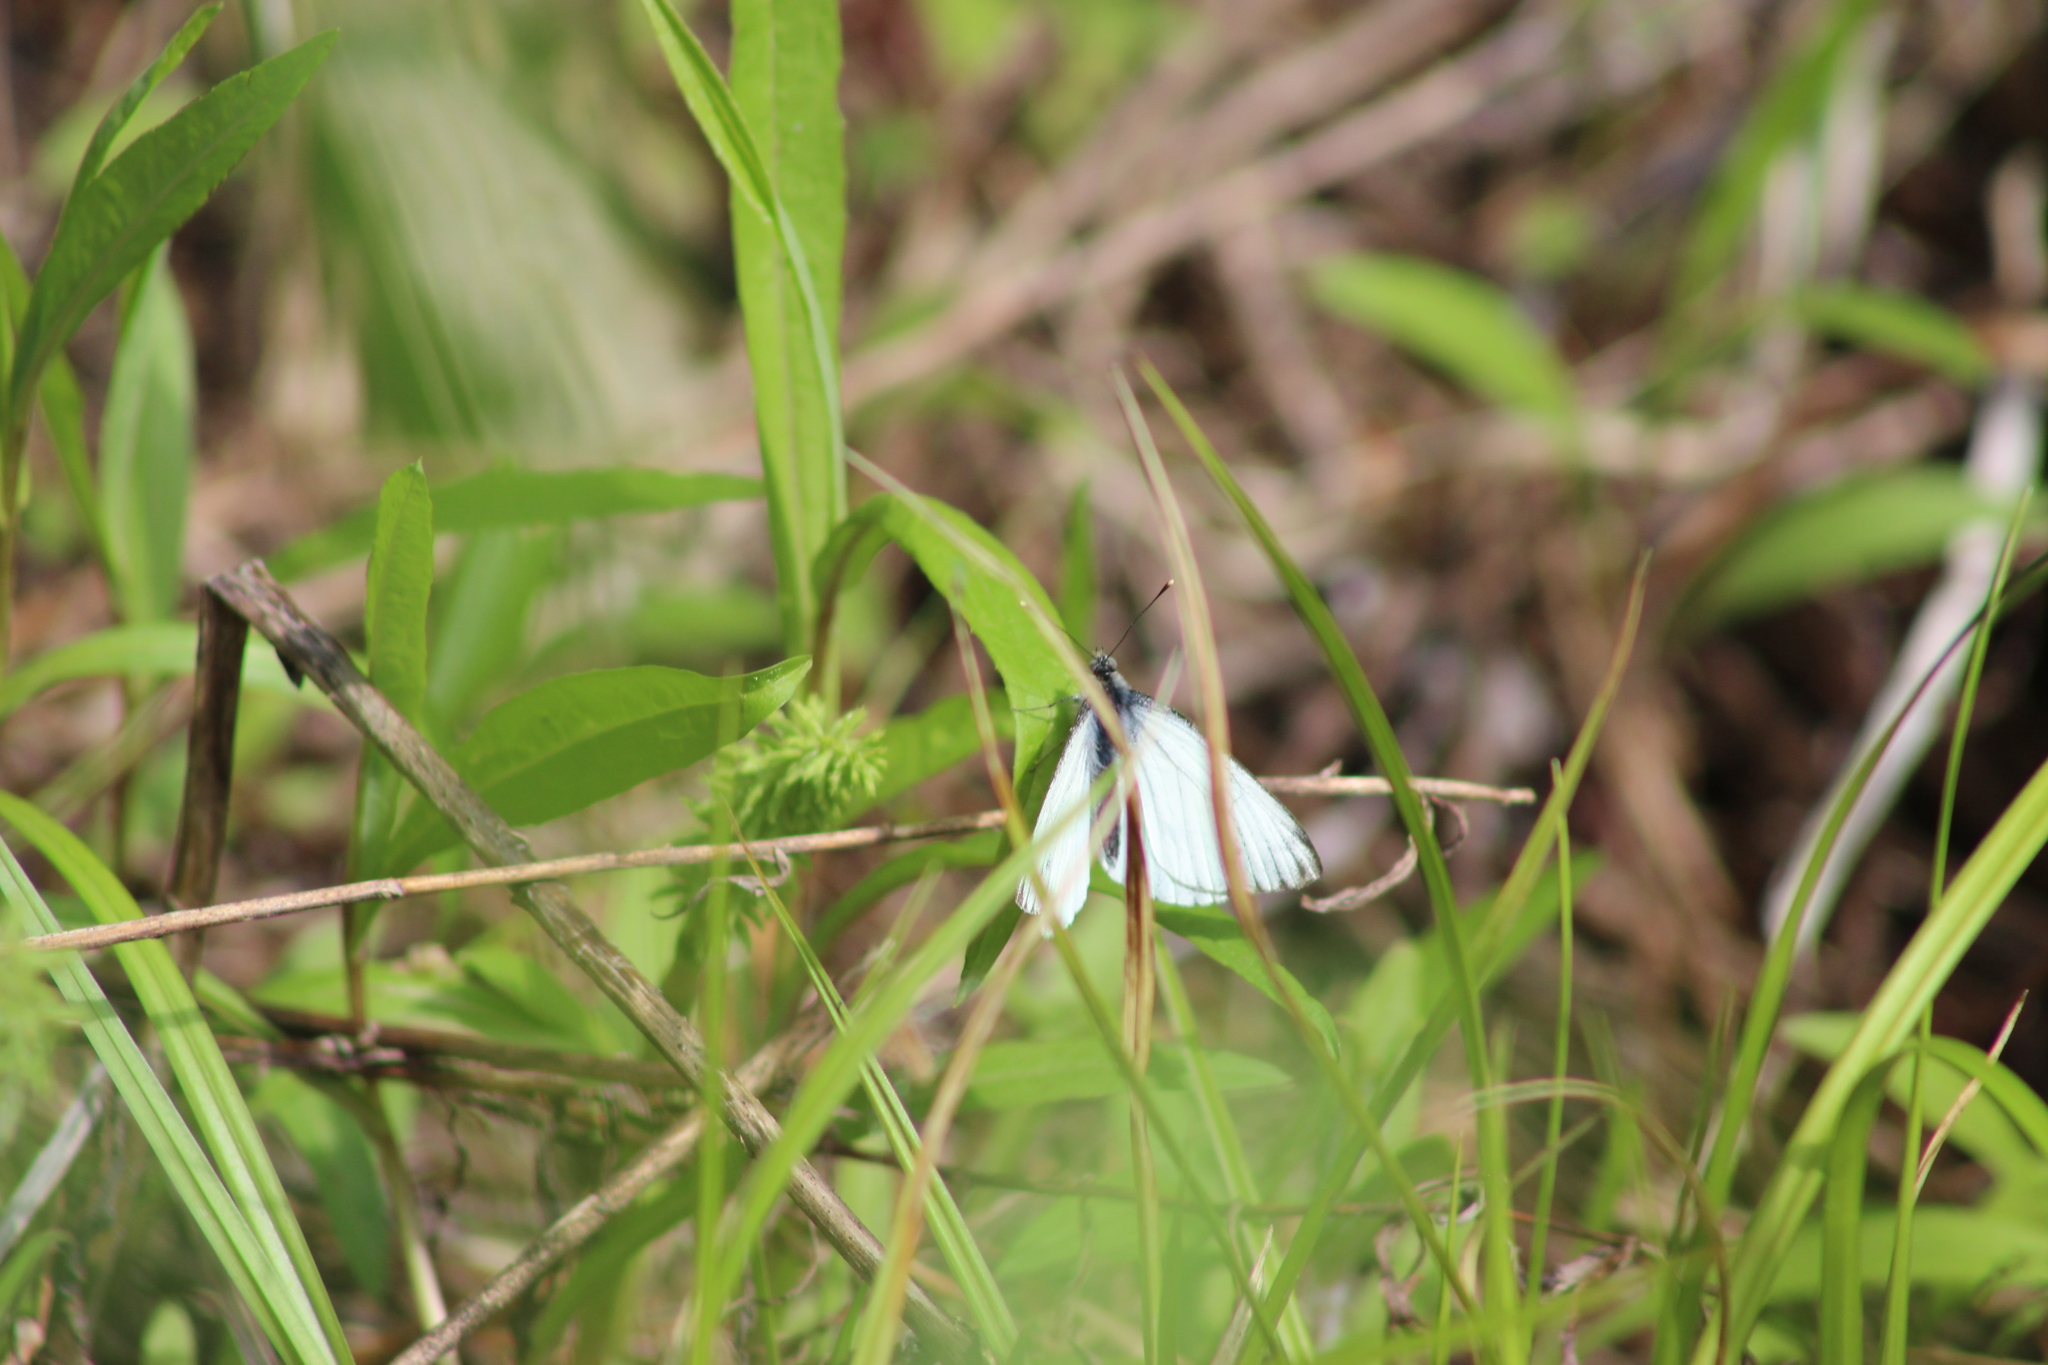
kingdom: Animalia
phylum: Arthropoda
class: Insecta
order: Lepidoptera
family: Pieridae
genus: Pieris
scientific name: Pieris napi
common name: Green-veined white
